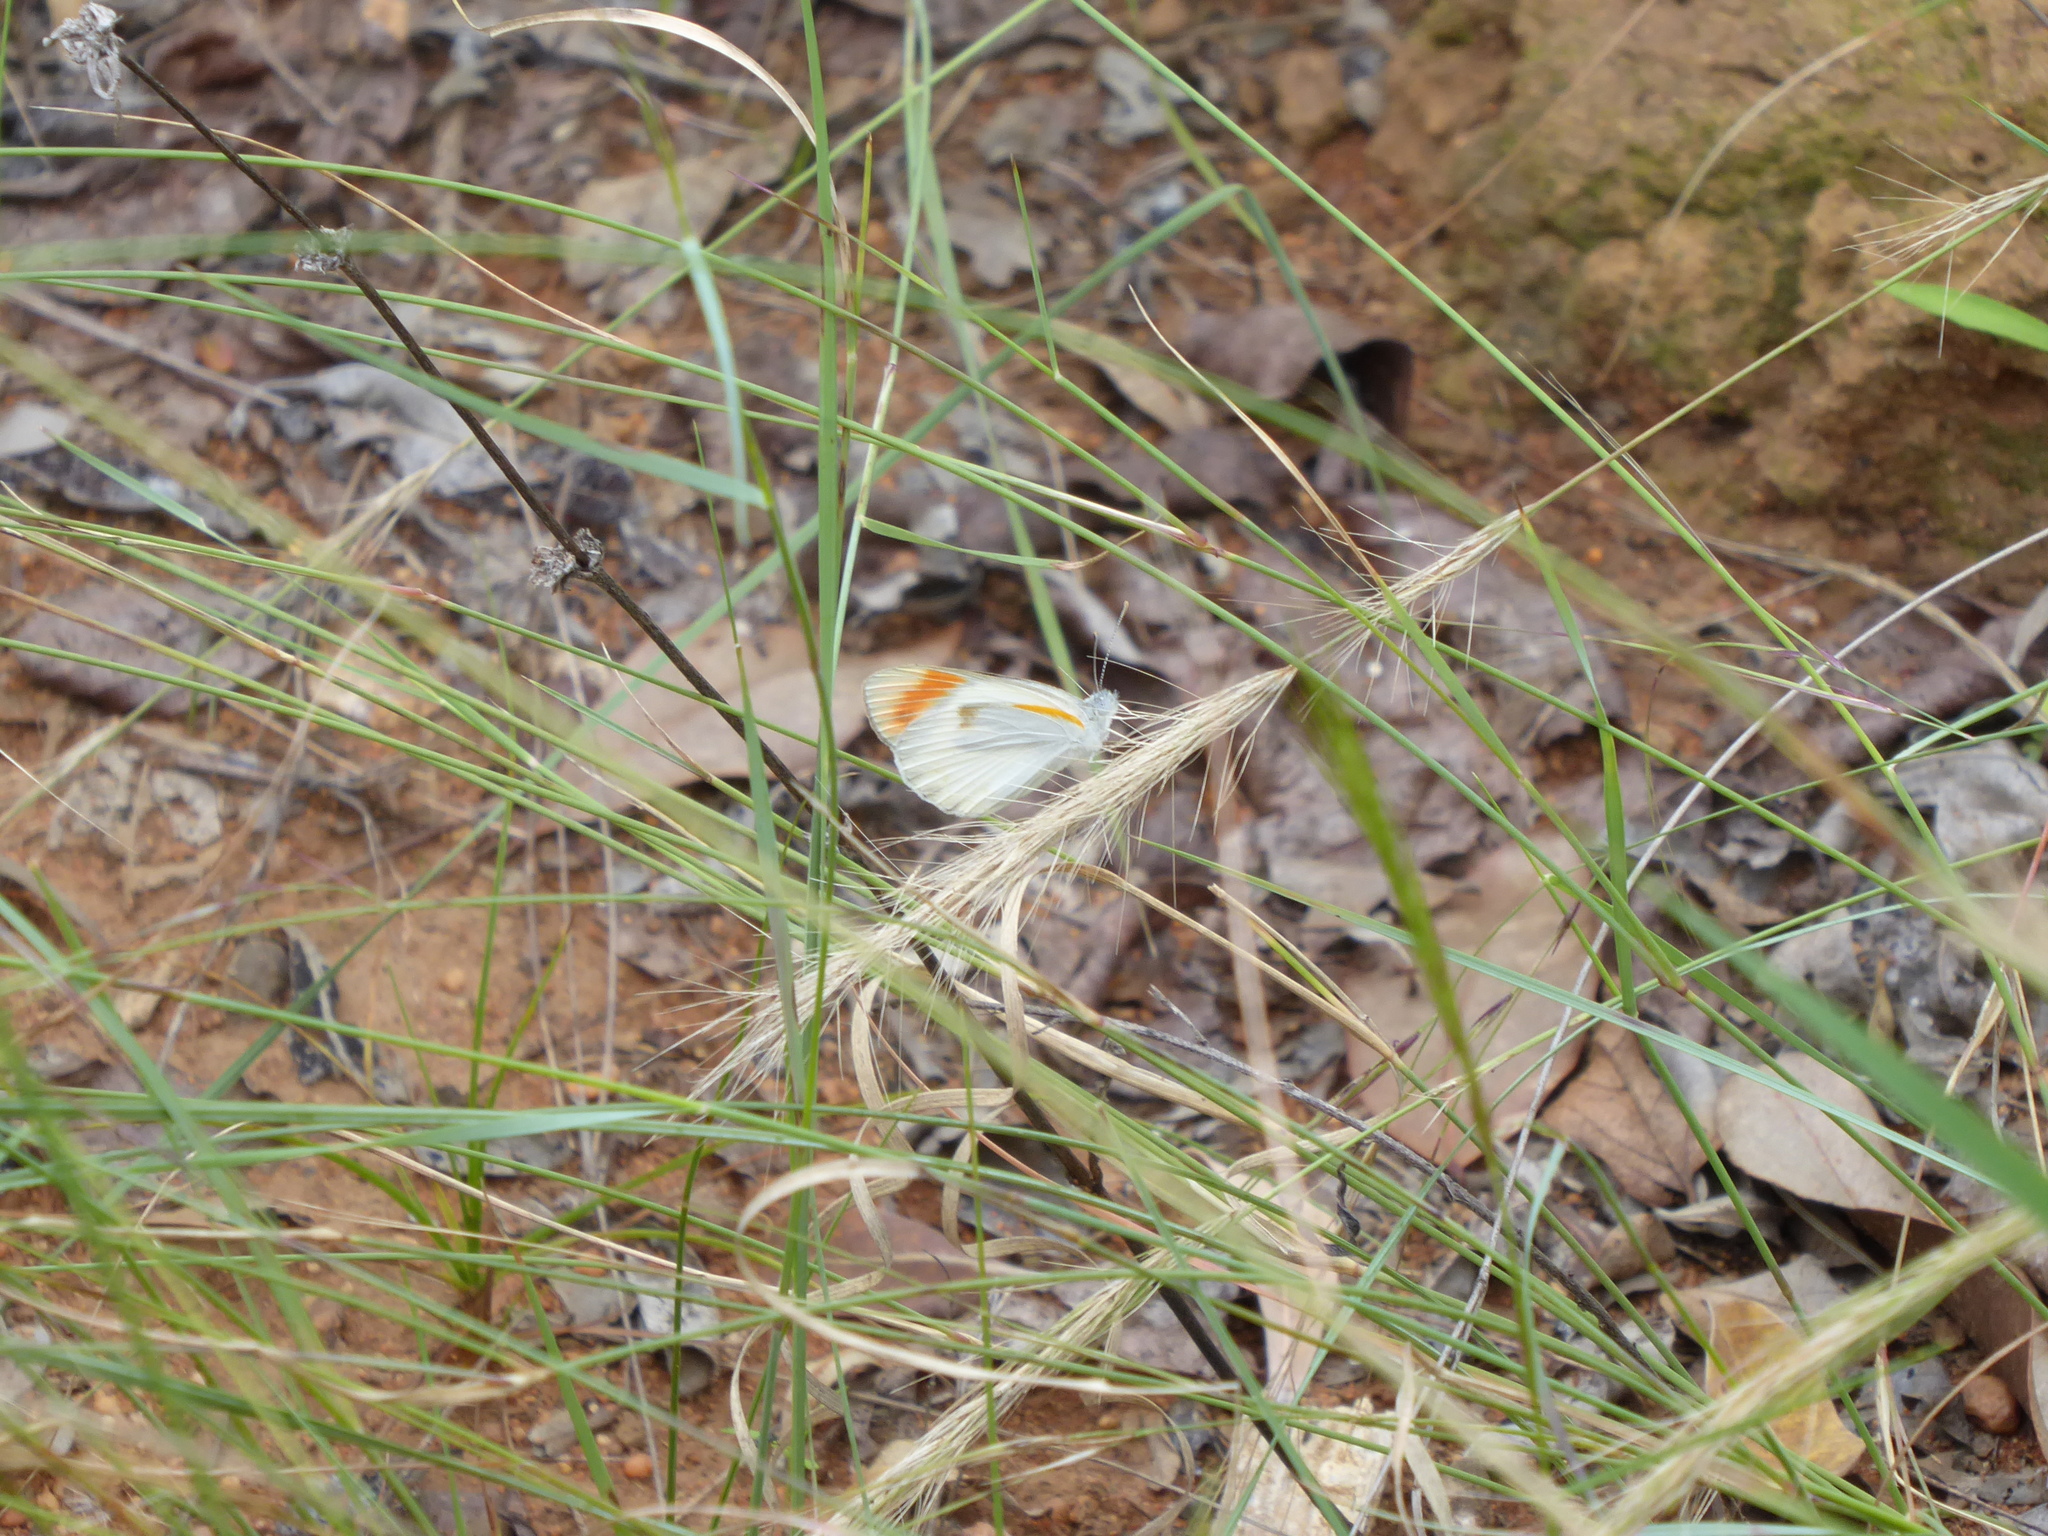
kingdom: Animalia
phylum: Arthropoda
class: Insecta
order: Lepidoptera
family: Pieridae
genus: Colotis
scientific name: Colotis
